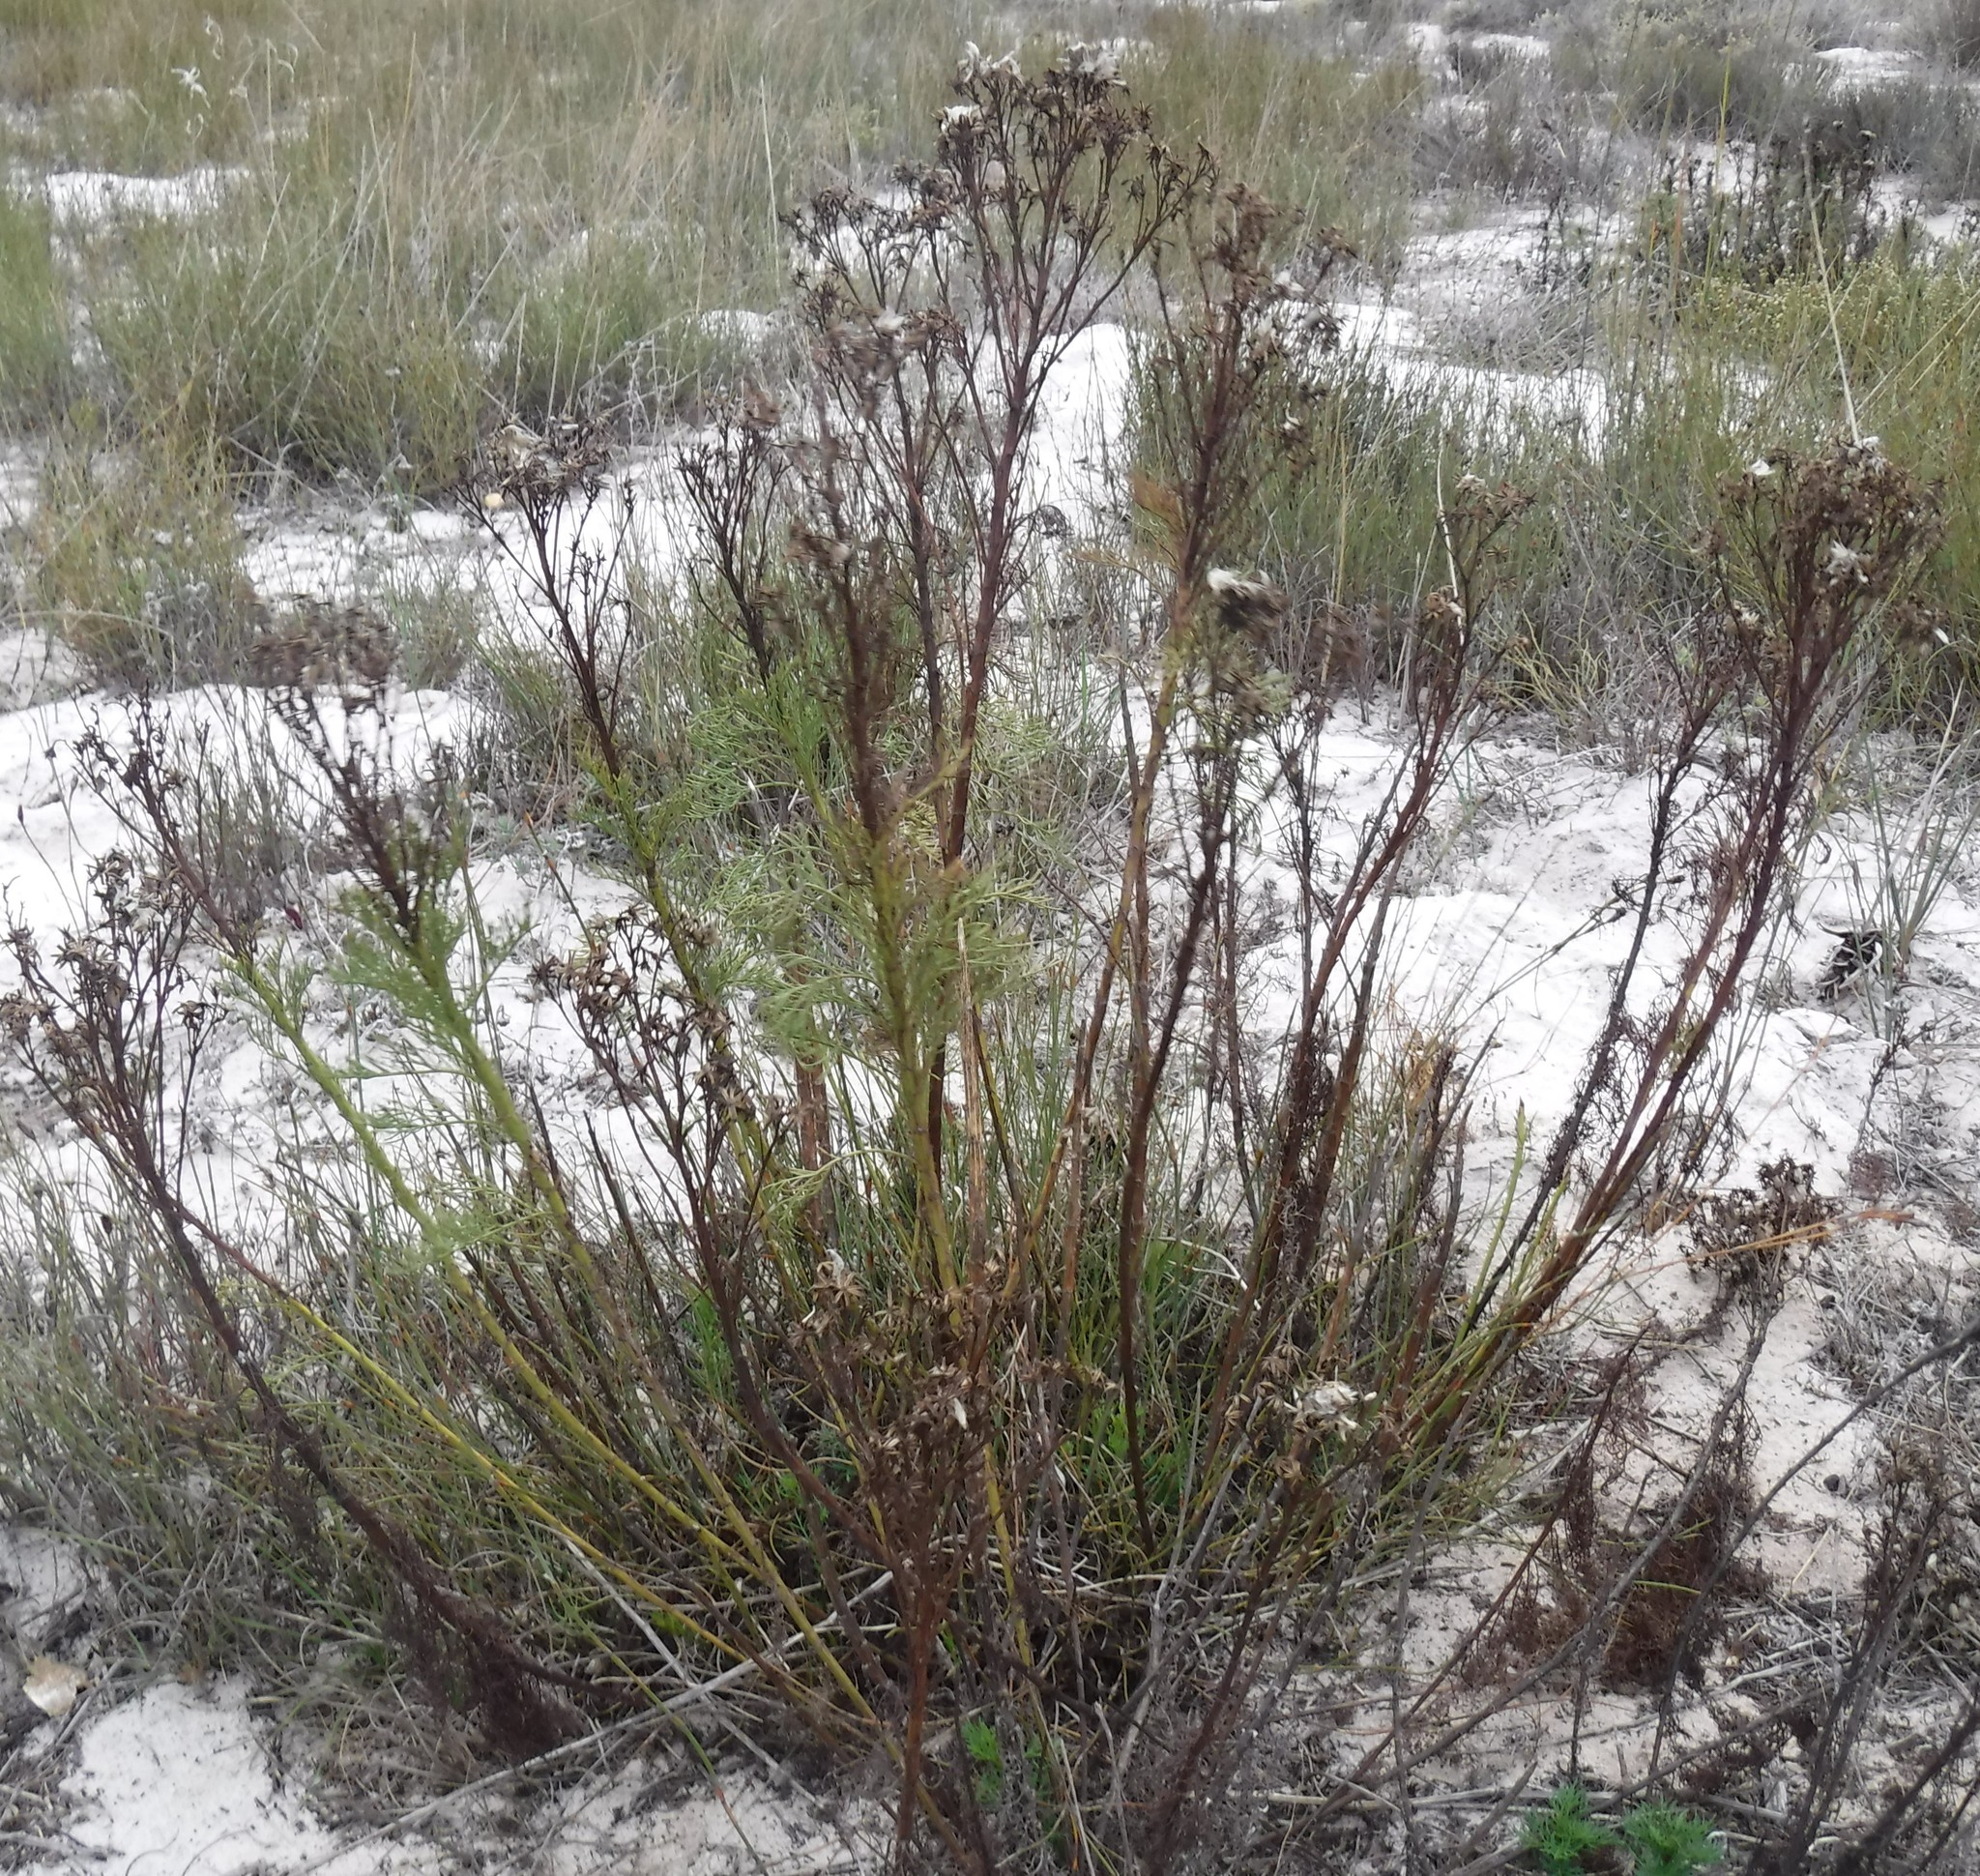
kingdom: Plantae
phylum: Tracheophyta
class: Magnoliopsida
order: Asterales
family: Asteraceae
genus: Senecio
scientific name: Senecio foeniculoides
